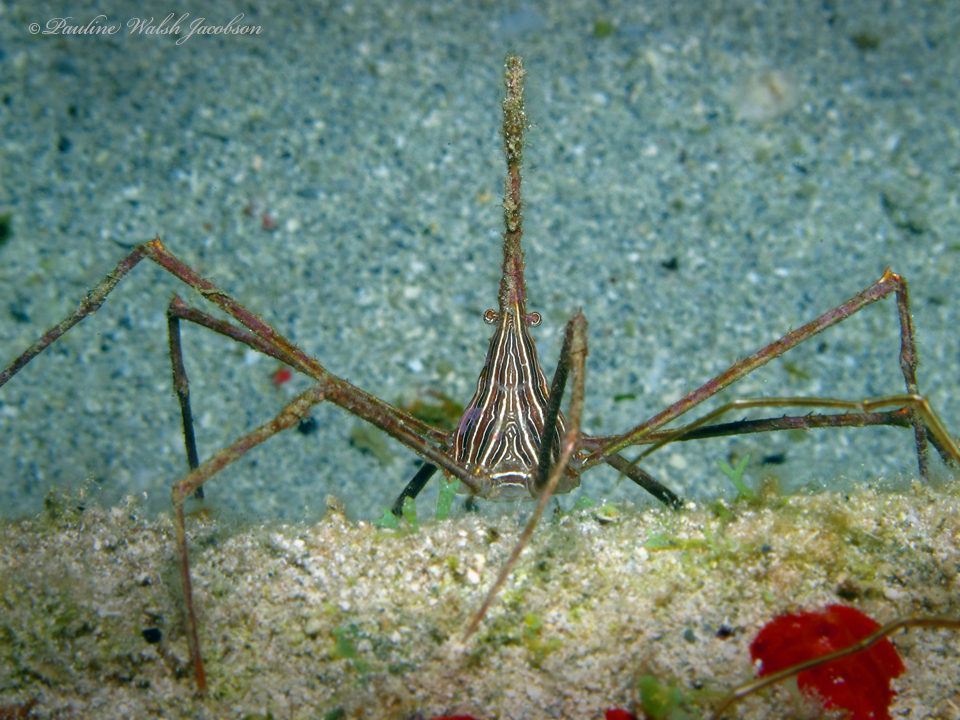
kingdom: Animalia
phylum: Arthropoda
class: Malacostraca
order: Decapoda
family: Inachoididae
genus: Stenorhynchus
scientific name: Stenorhynchus seticornis
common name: Arrow crab
